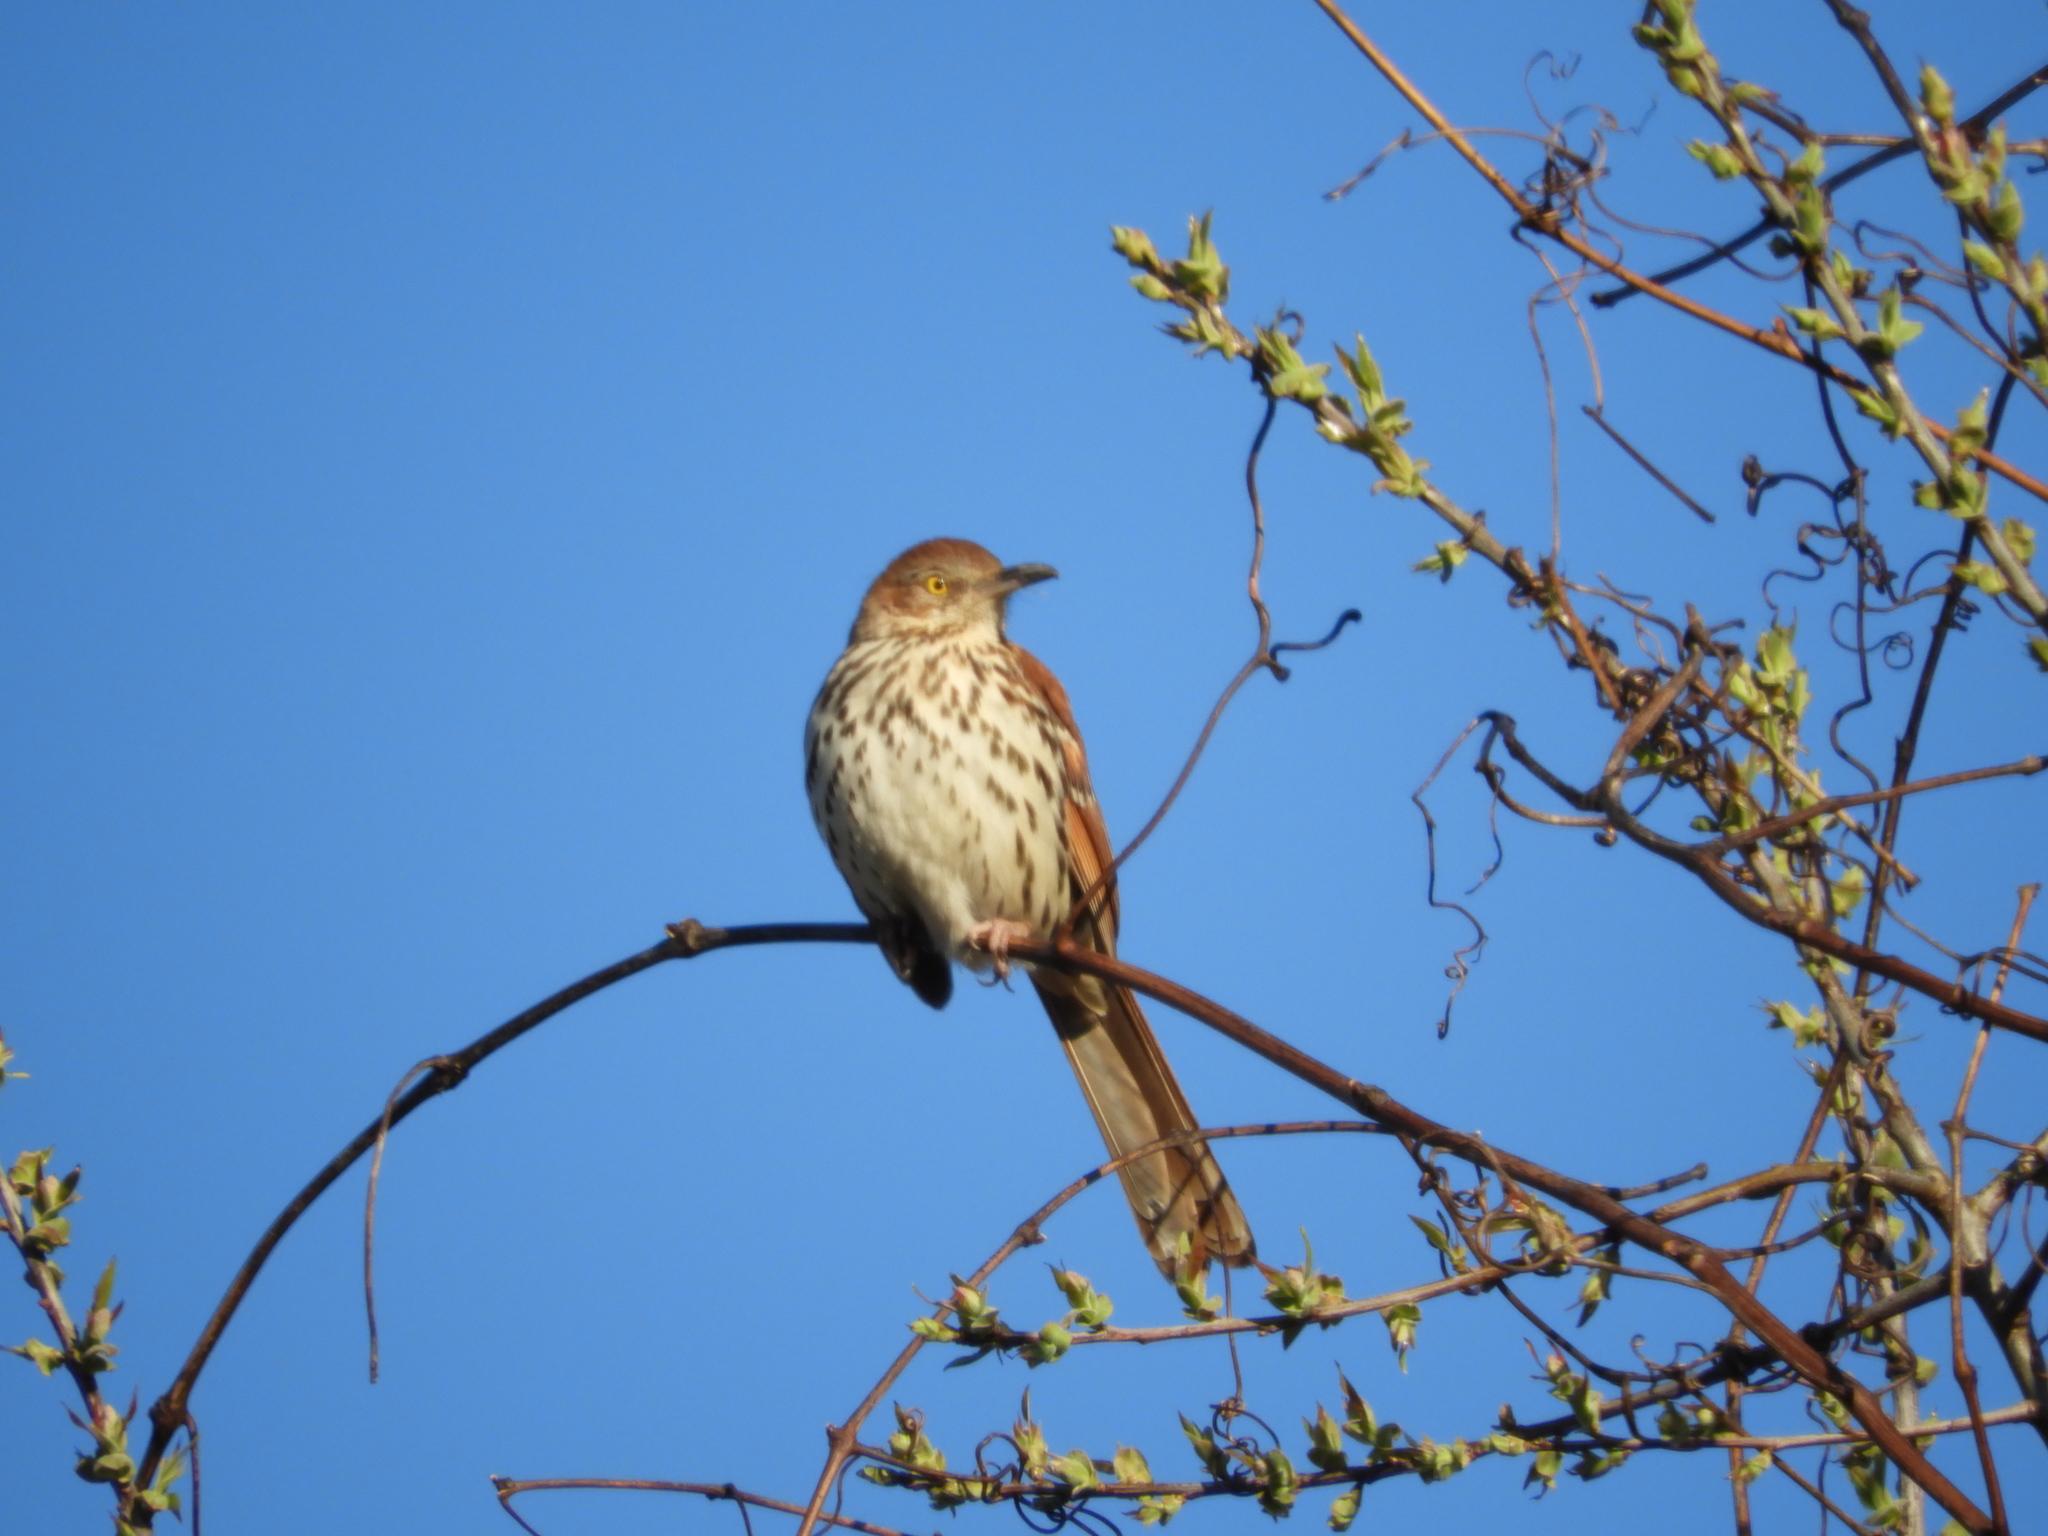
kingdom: Animalia
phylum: Chordata
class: Aves
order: Passeriformes
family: Mimidae
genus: Toxostoma
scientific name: Toxostoma rufum
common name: Brown thrasher
